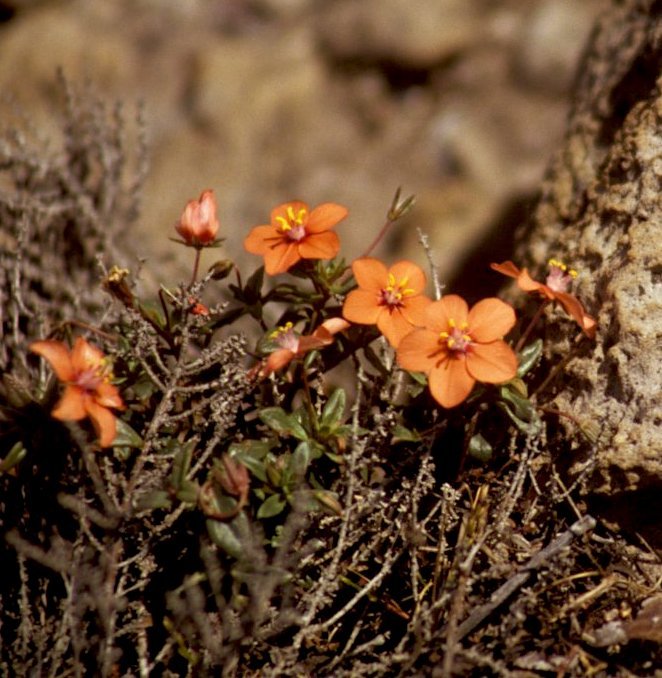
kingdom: Plantae
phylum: Tracheophyta
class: Magnoliopsida
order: Ericales
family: Primulaceae
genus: Lysimachia
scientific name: Lysimachia collina
